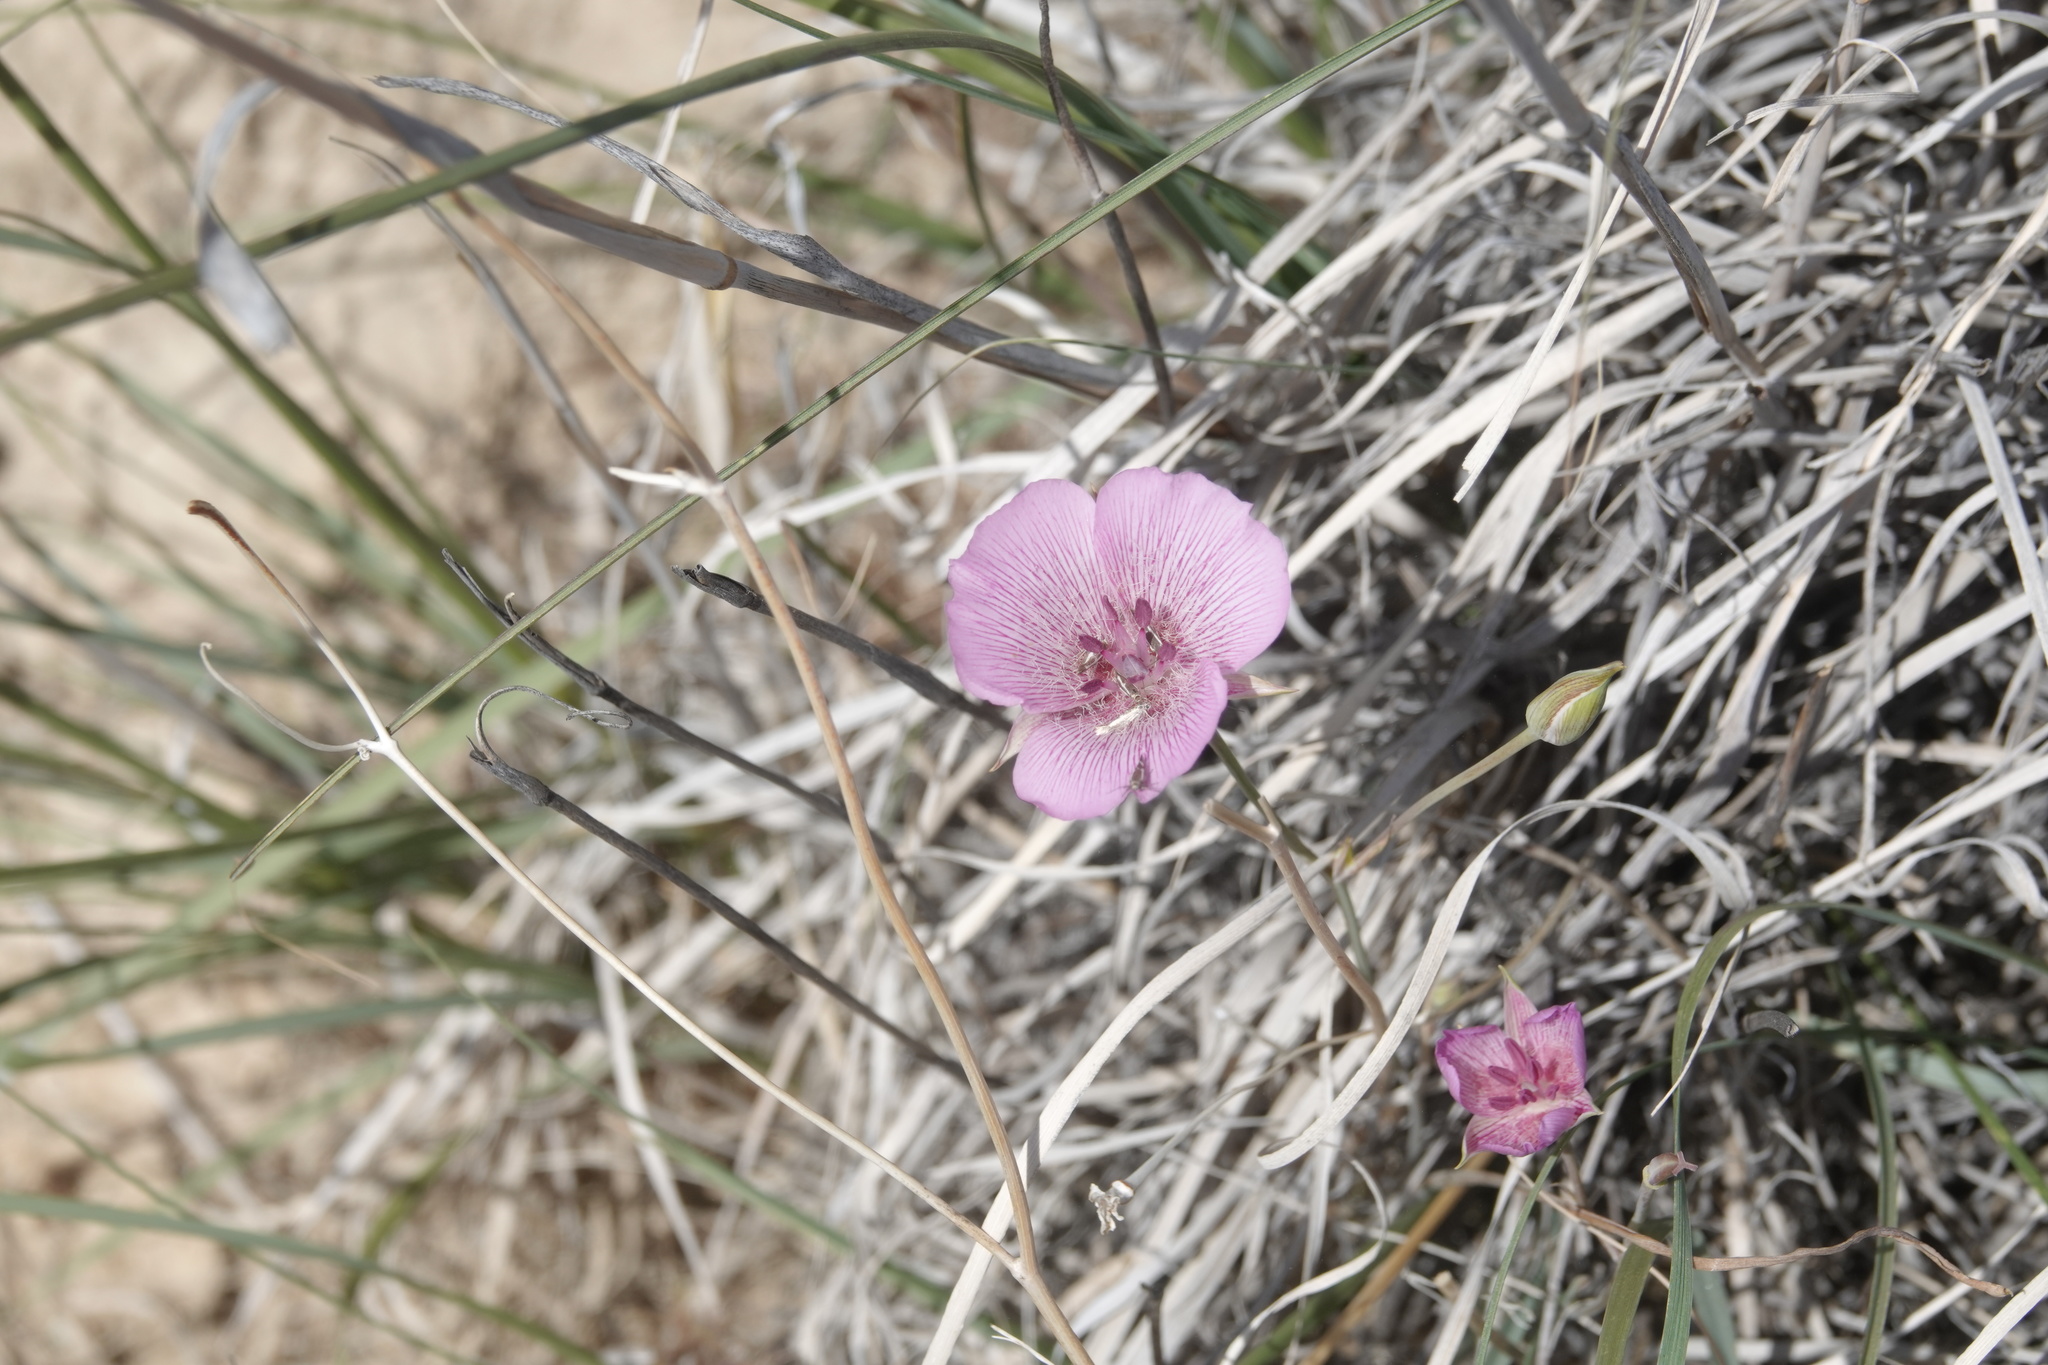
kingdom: Plantae
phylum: Tracheophyta
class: Liliopsida
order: Liliales
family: Liliaceae
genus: Calochortus
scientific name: Calochortus striatus
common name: Alkali mariposa-lily
